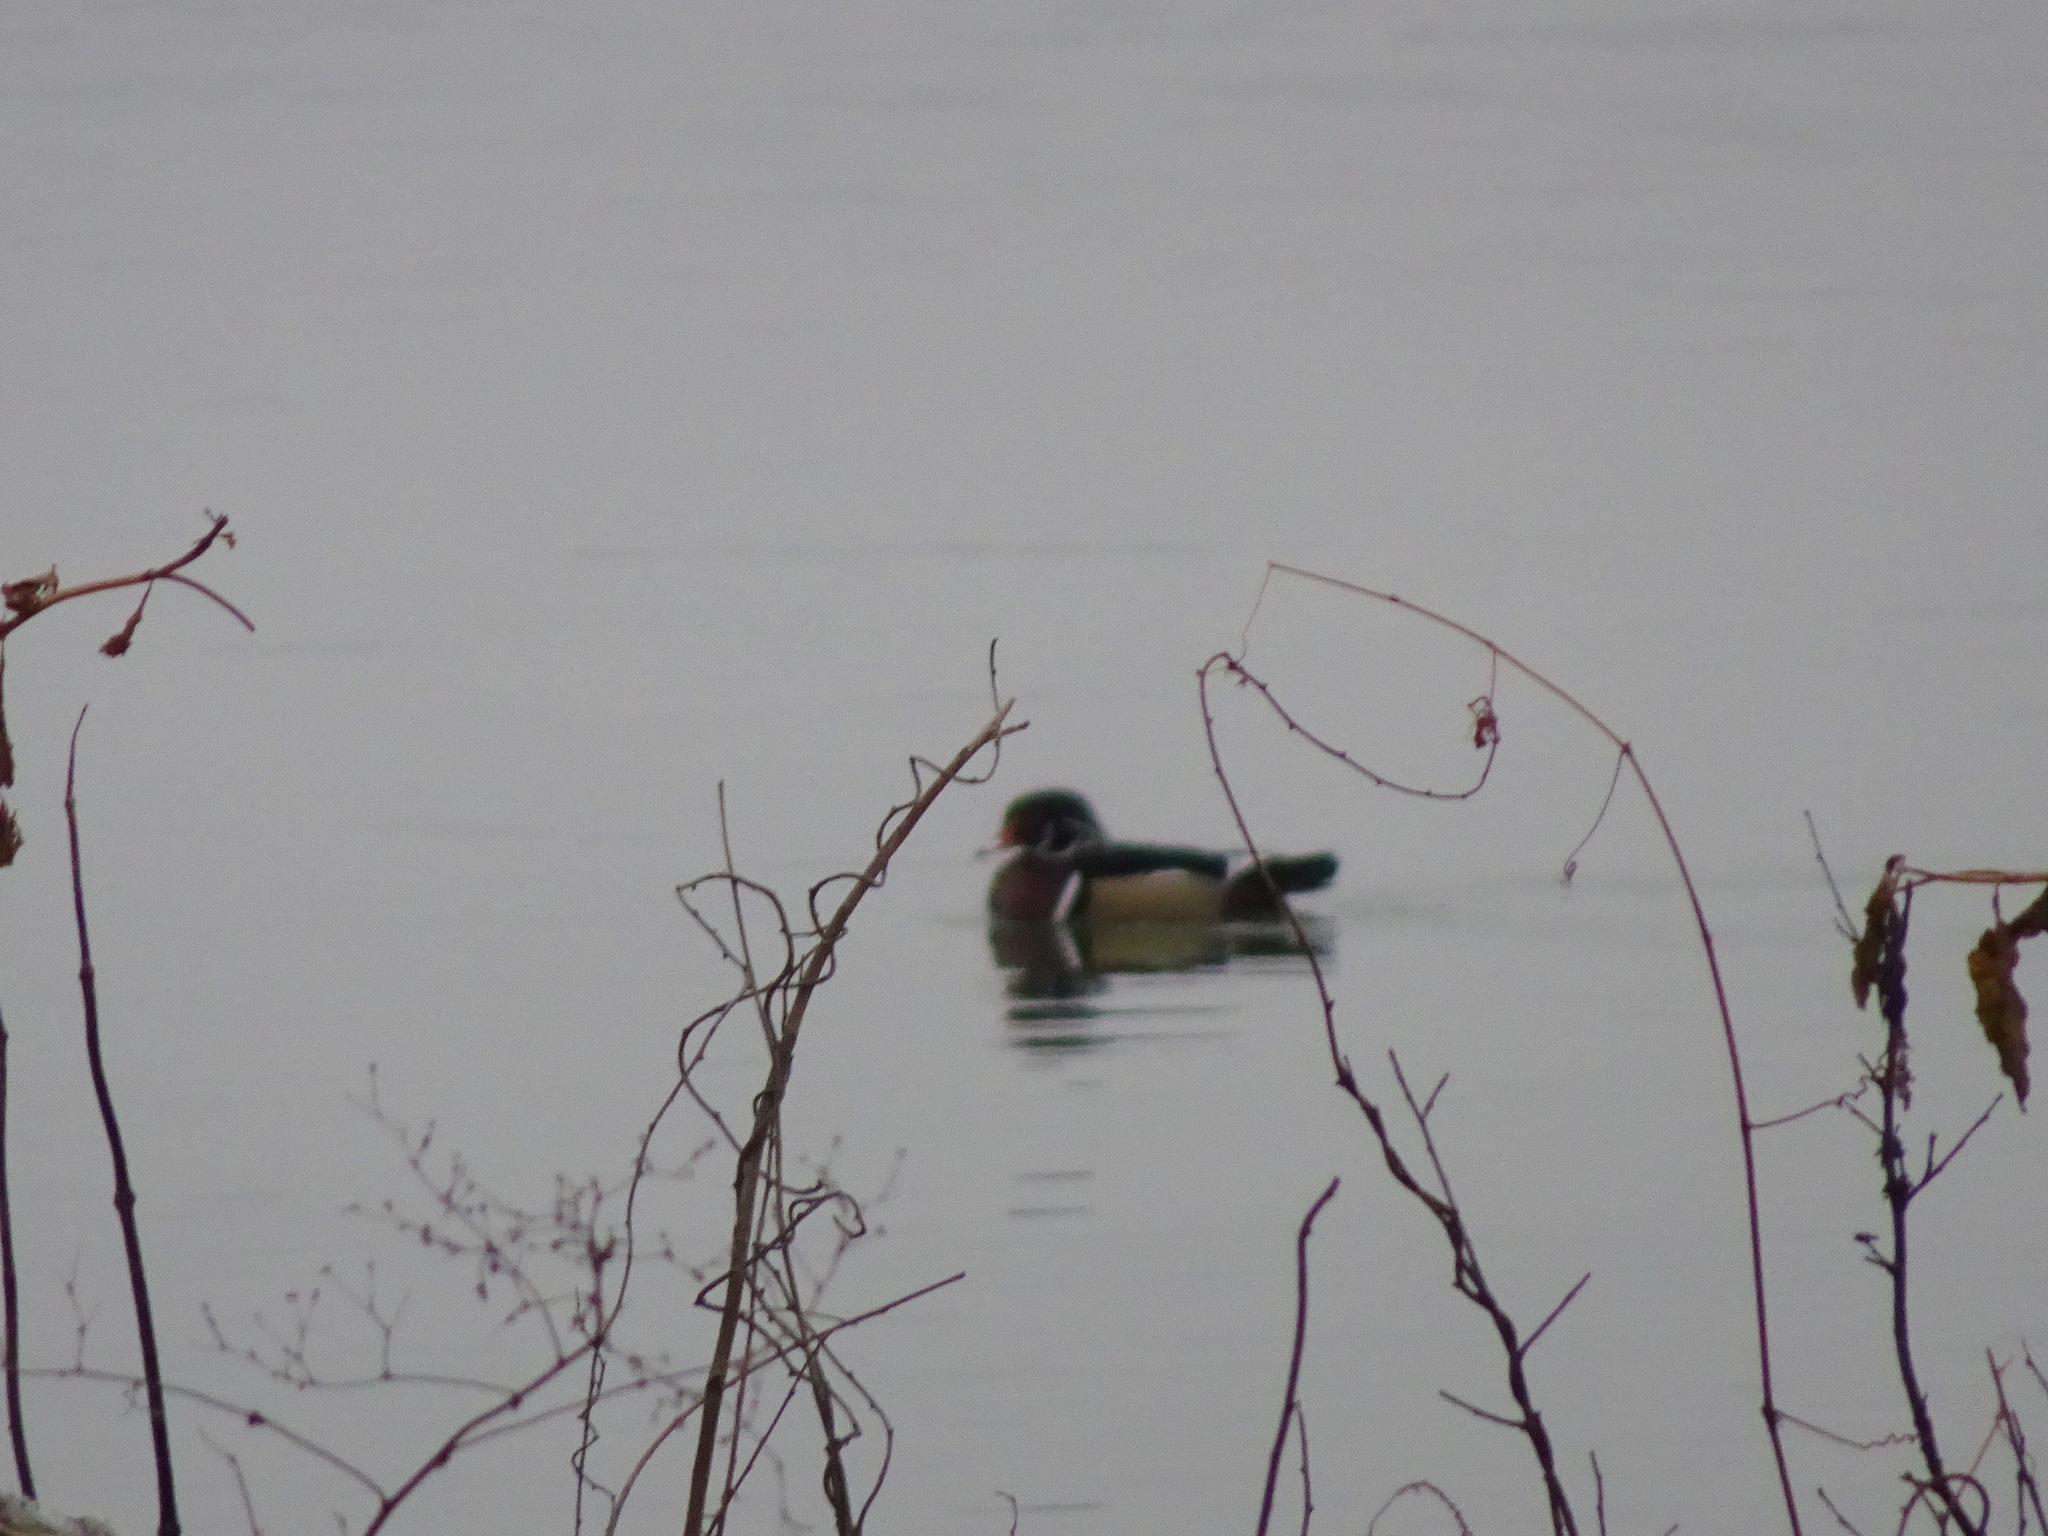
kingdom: Animalia
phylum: Chordata
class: Aves
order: Anseriformes
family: Anatidae
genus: Aix
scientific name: Aix sponsa
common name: Wood duck
